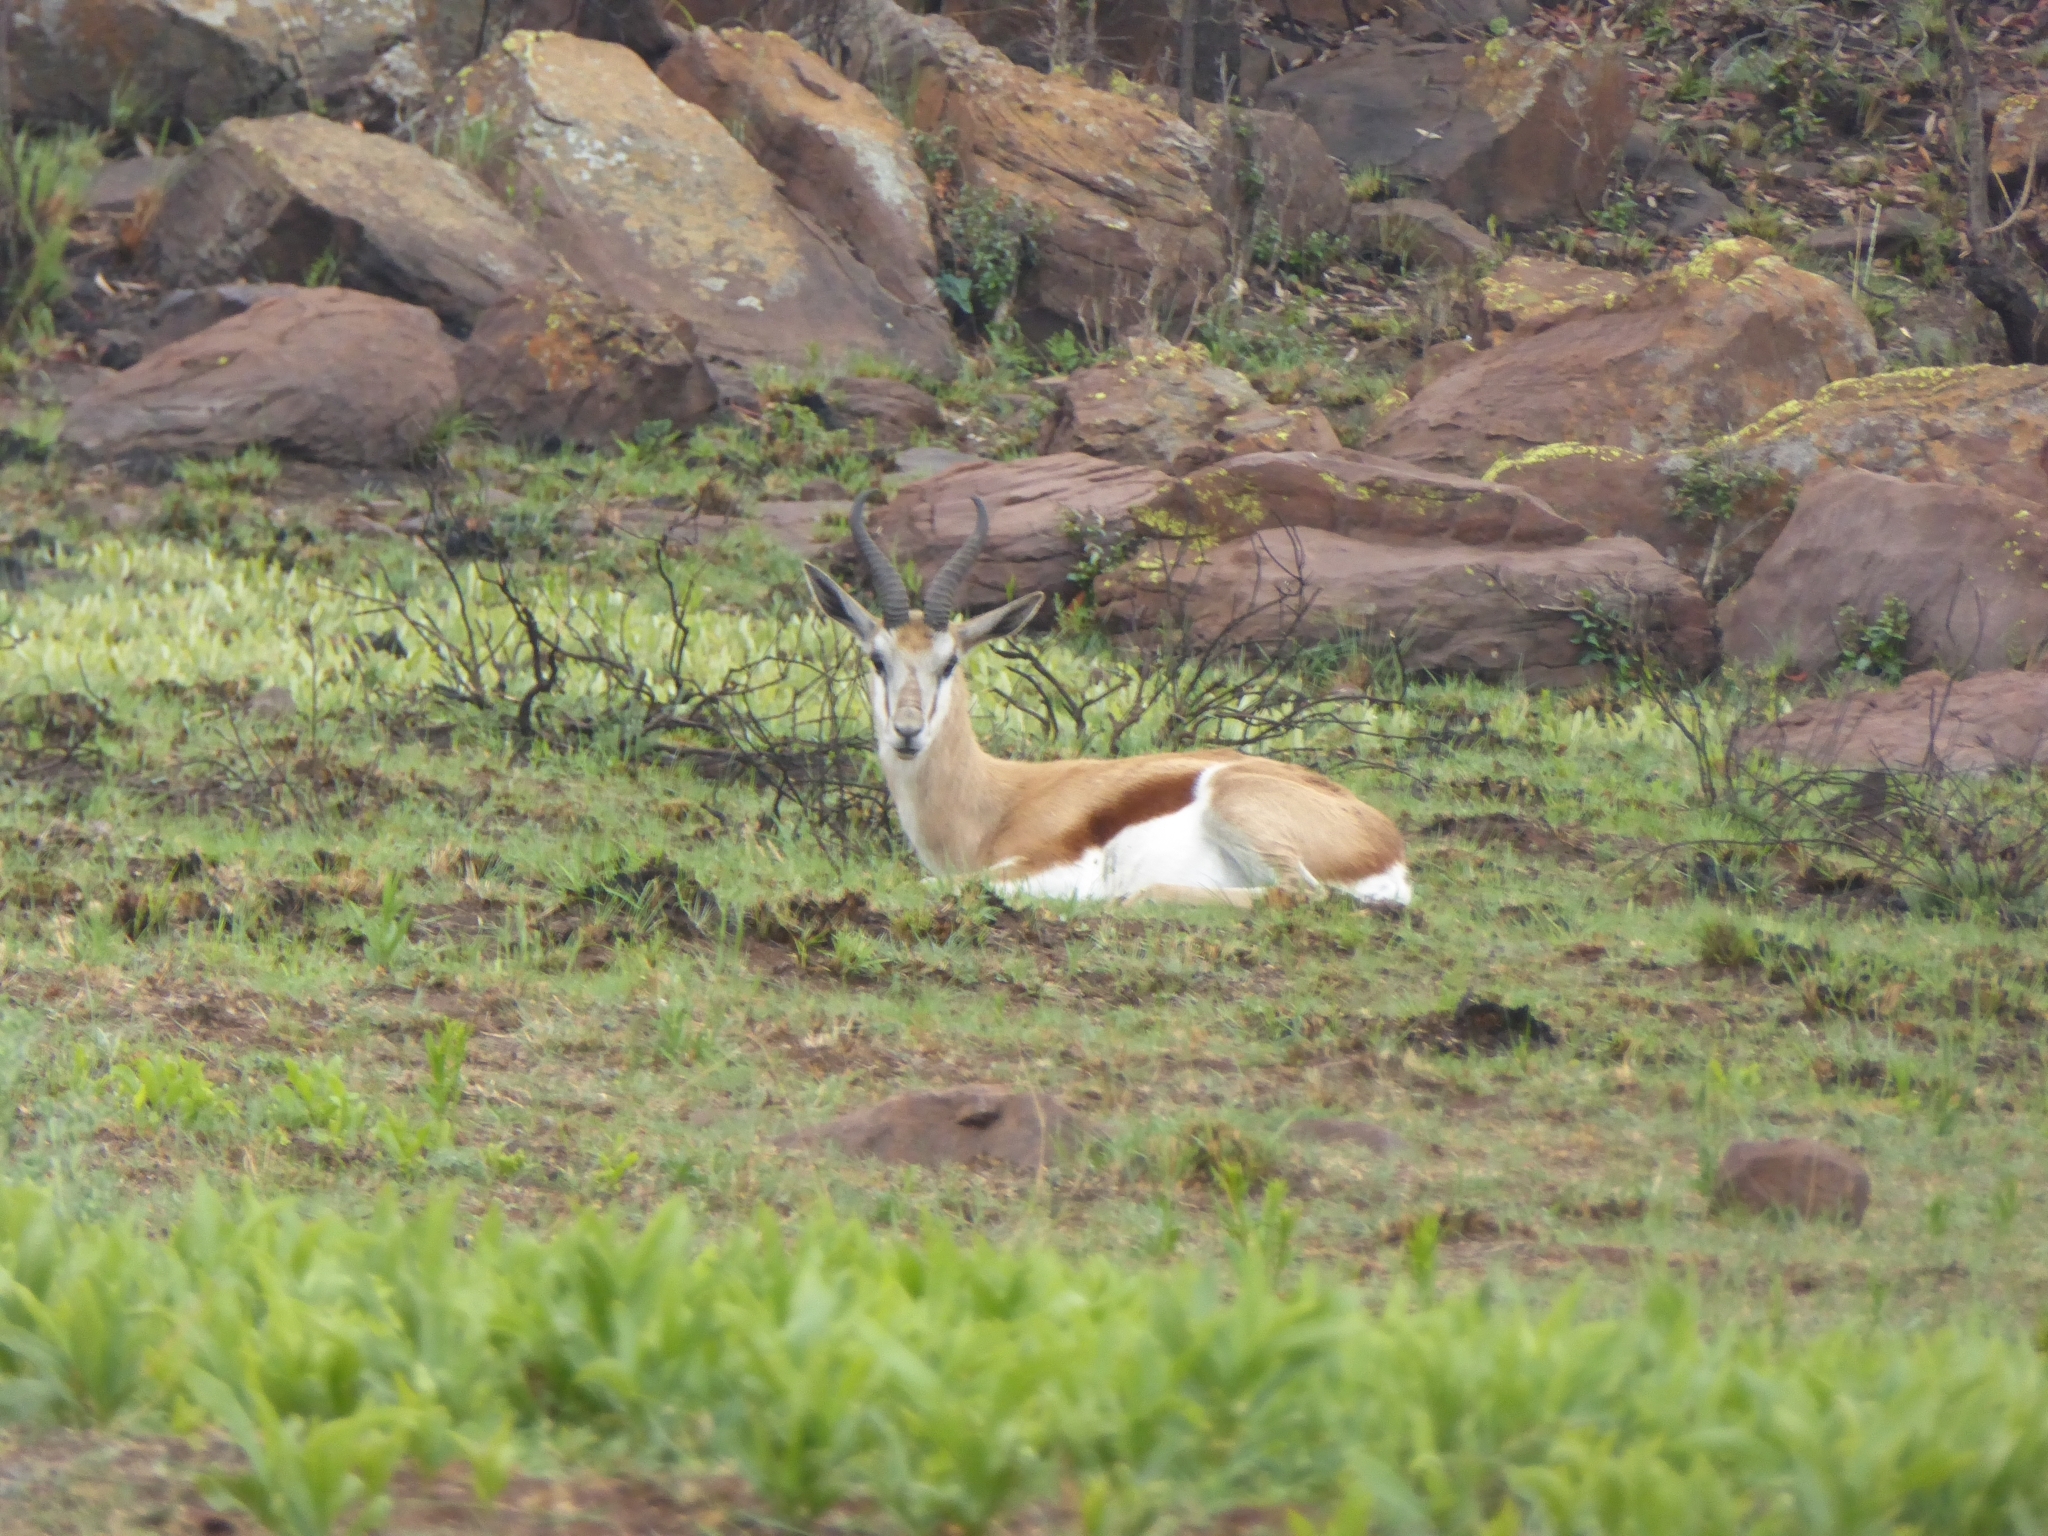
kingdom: Animalia
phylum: Chordata
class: Mammalia
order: Artiodactyla
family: Bovidae
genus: Antidorcas
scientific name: Antidorcas marsupialis
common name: Springbok
